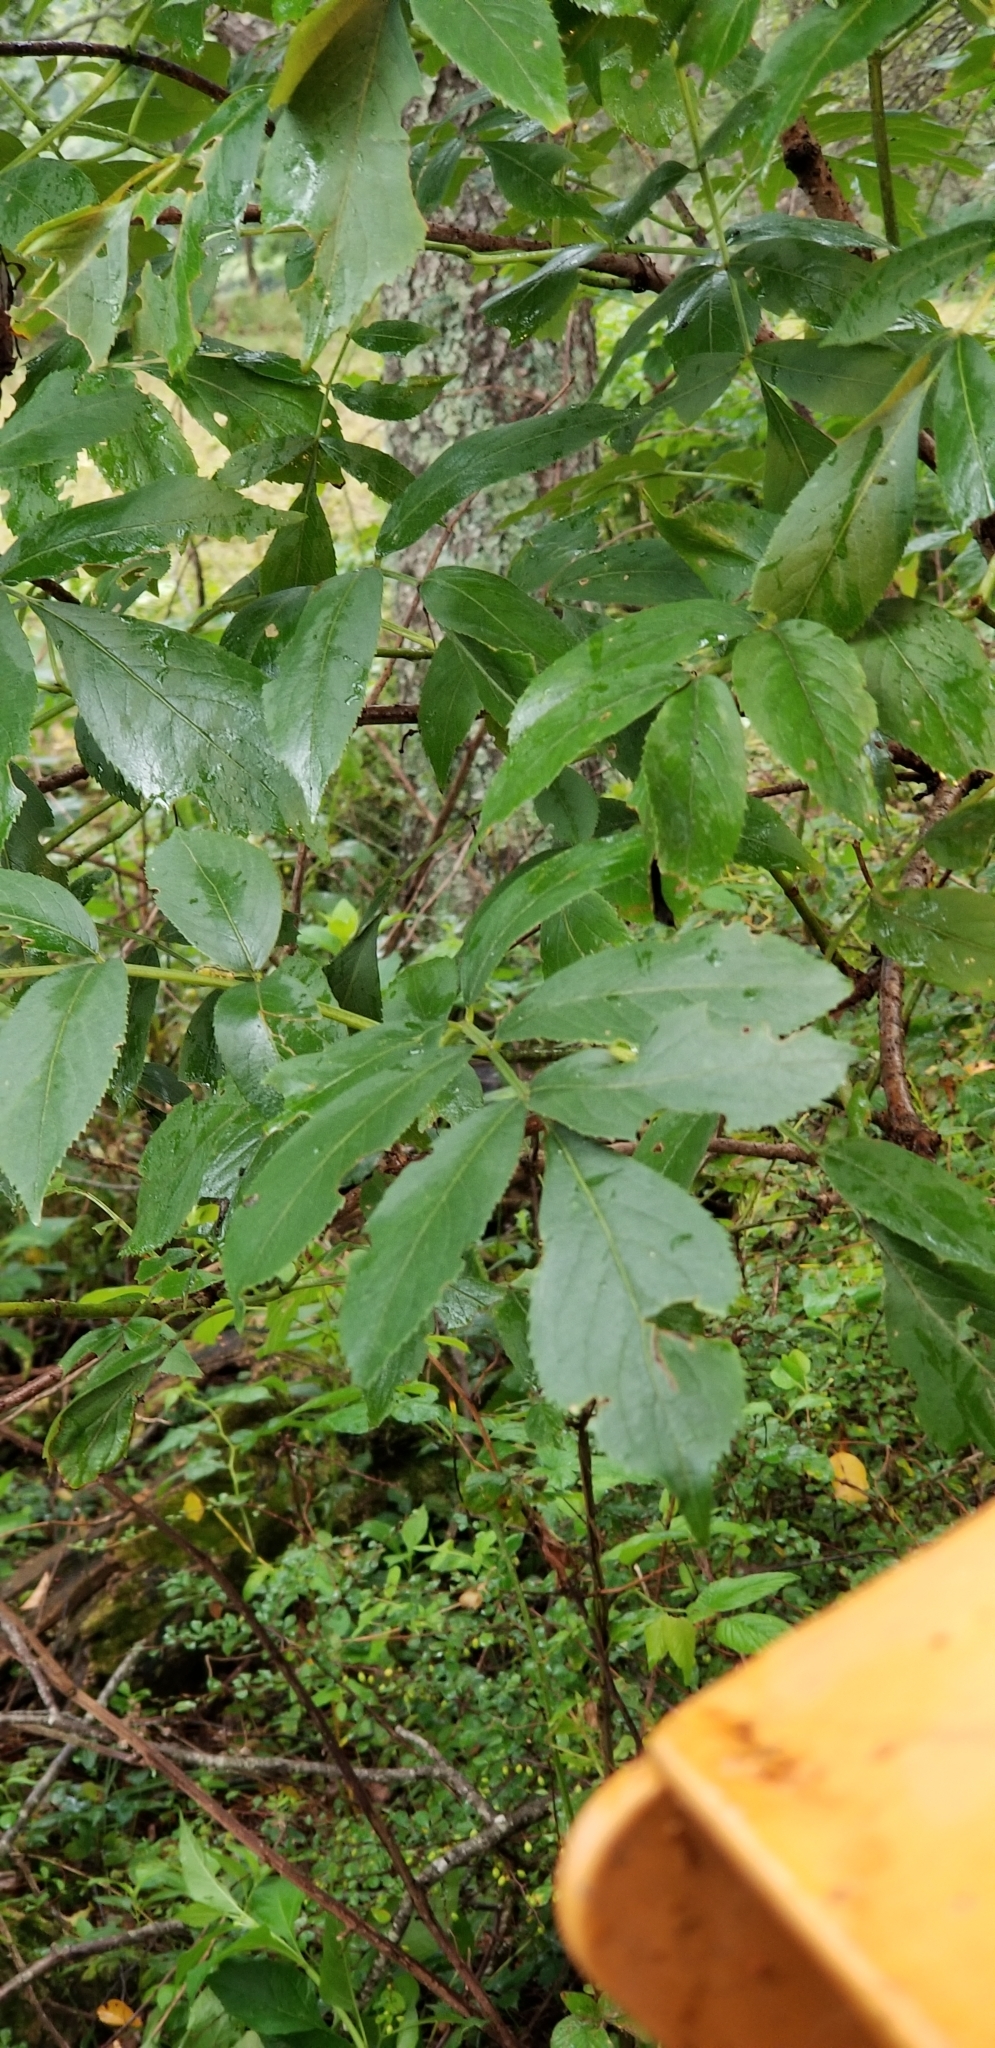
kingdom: Plantae
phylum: Tracheophyta
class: Magnoliopsida
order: Dipsacales
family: Viburnaceae
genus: Sambucus
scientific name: Sambucus canadensis
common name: American elder
